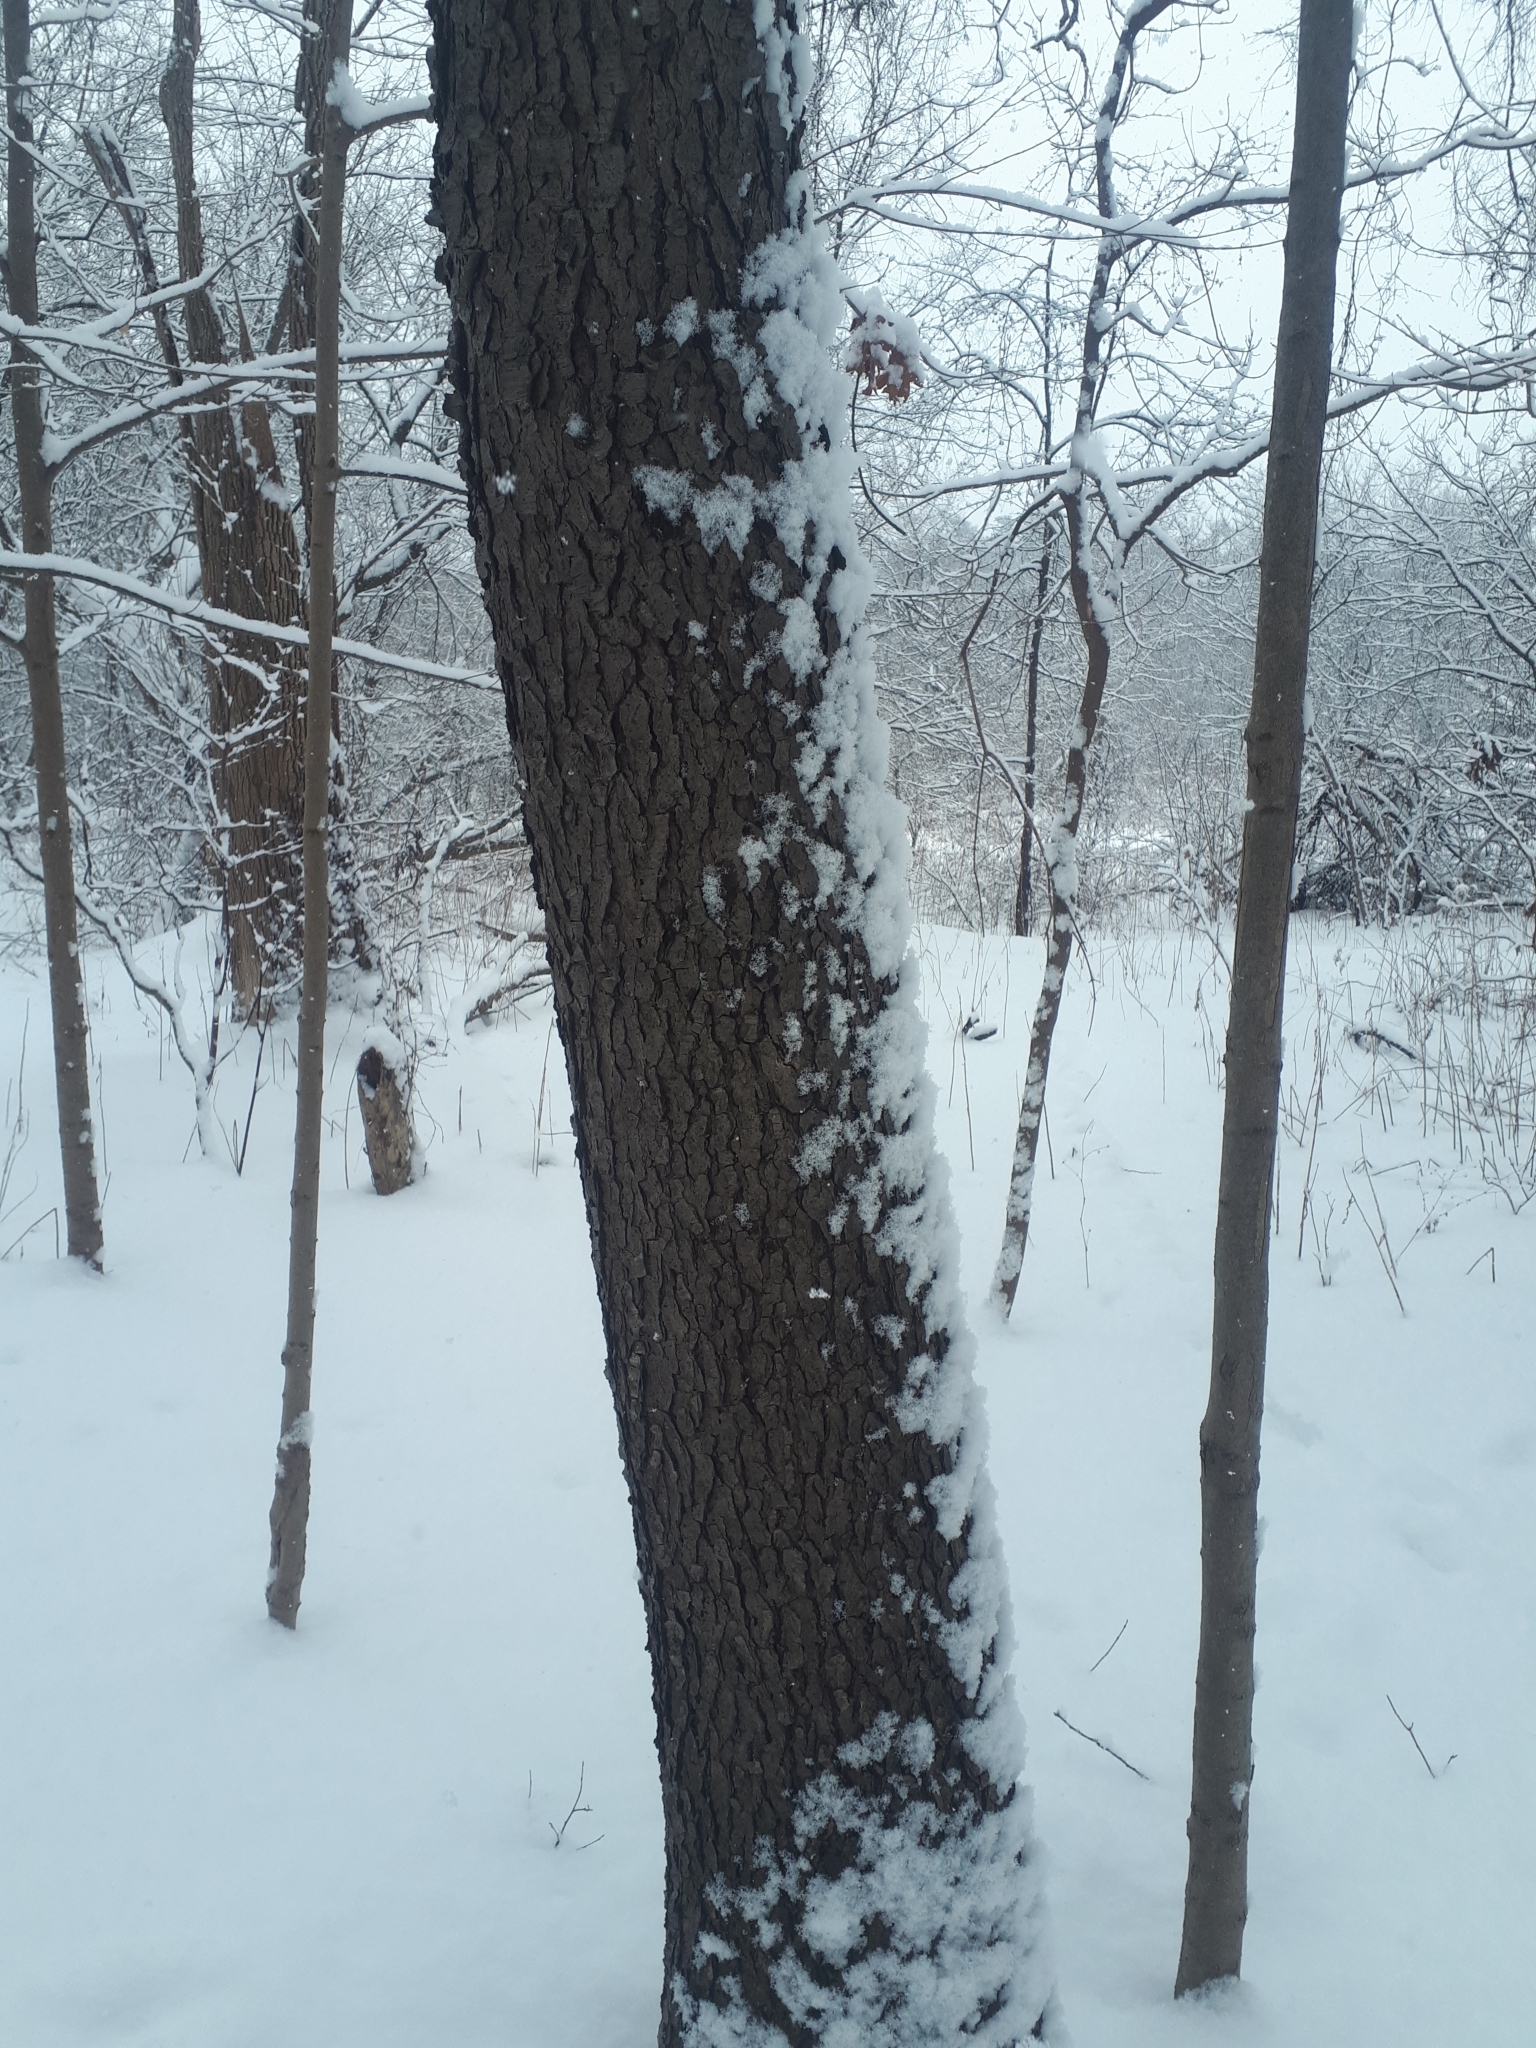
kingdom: Plantae
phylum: Tracheophyta
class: Magnoliopsida
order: Rosales
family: Rosaceae
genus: Prunus
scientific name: Prunus serotina
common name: Black cherry
